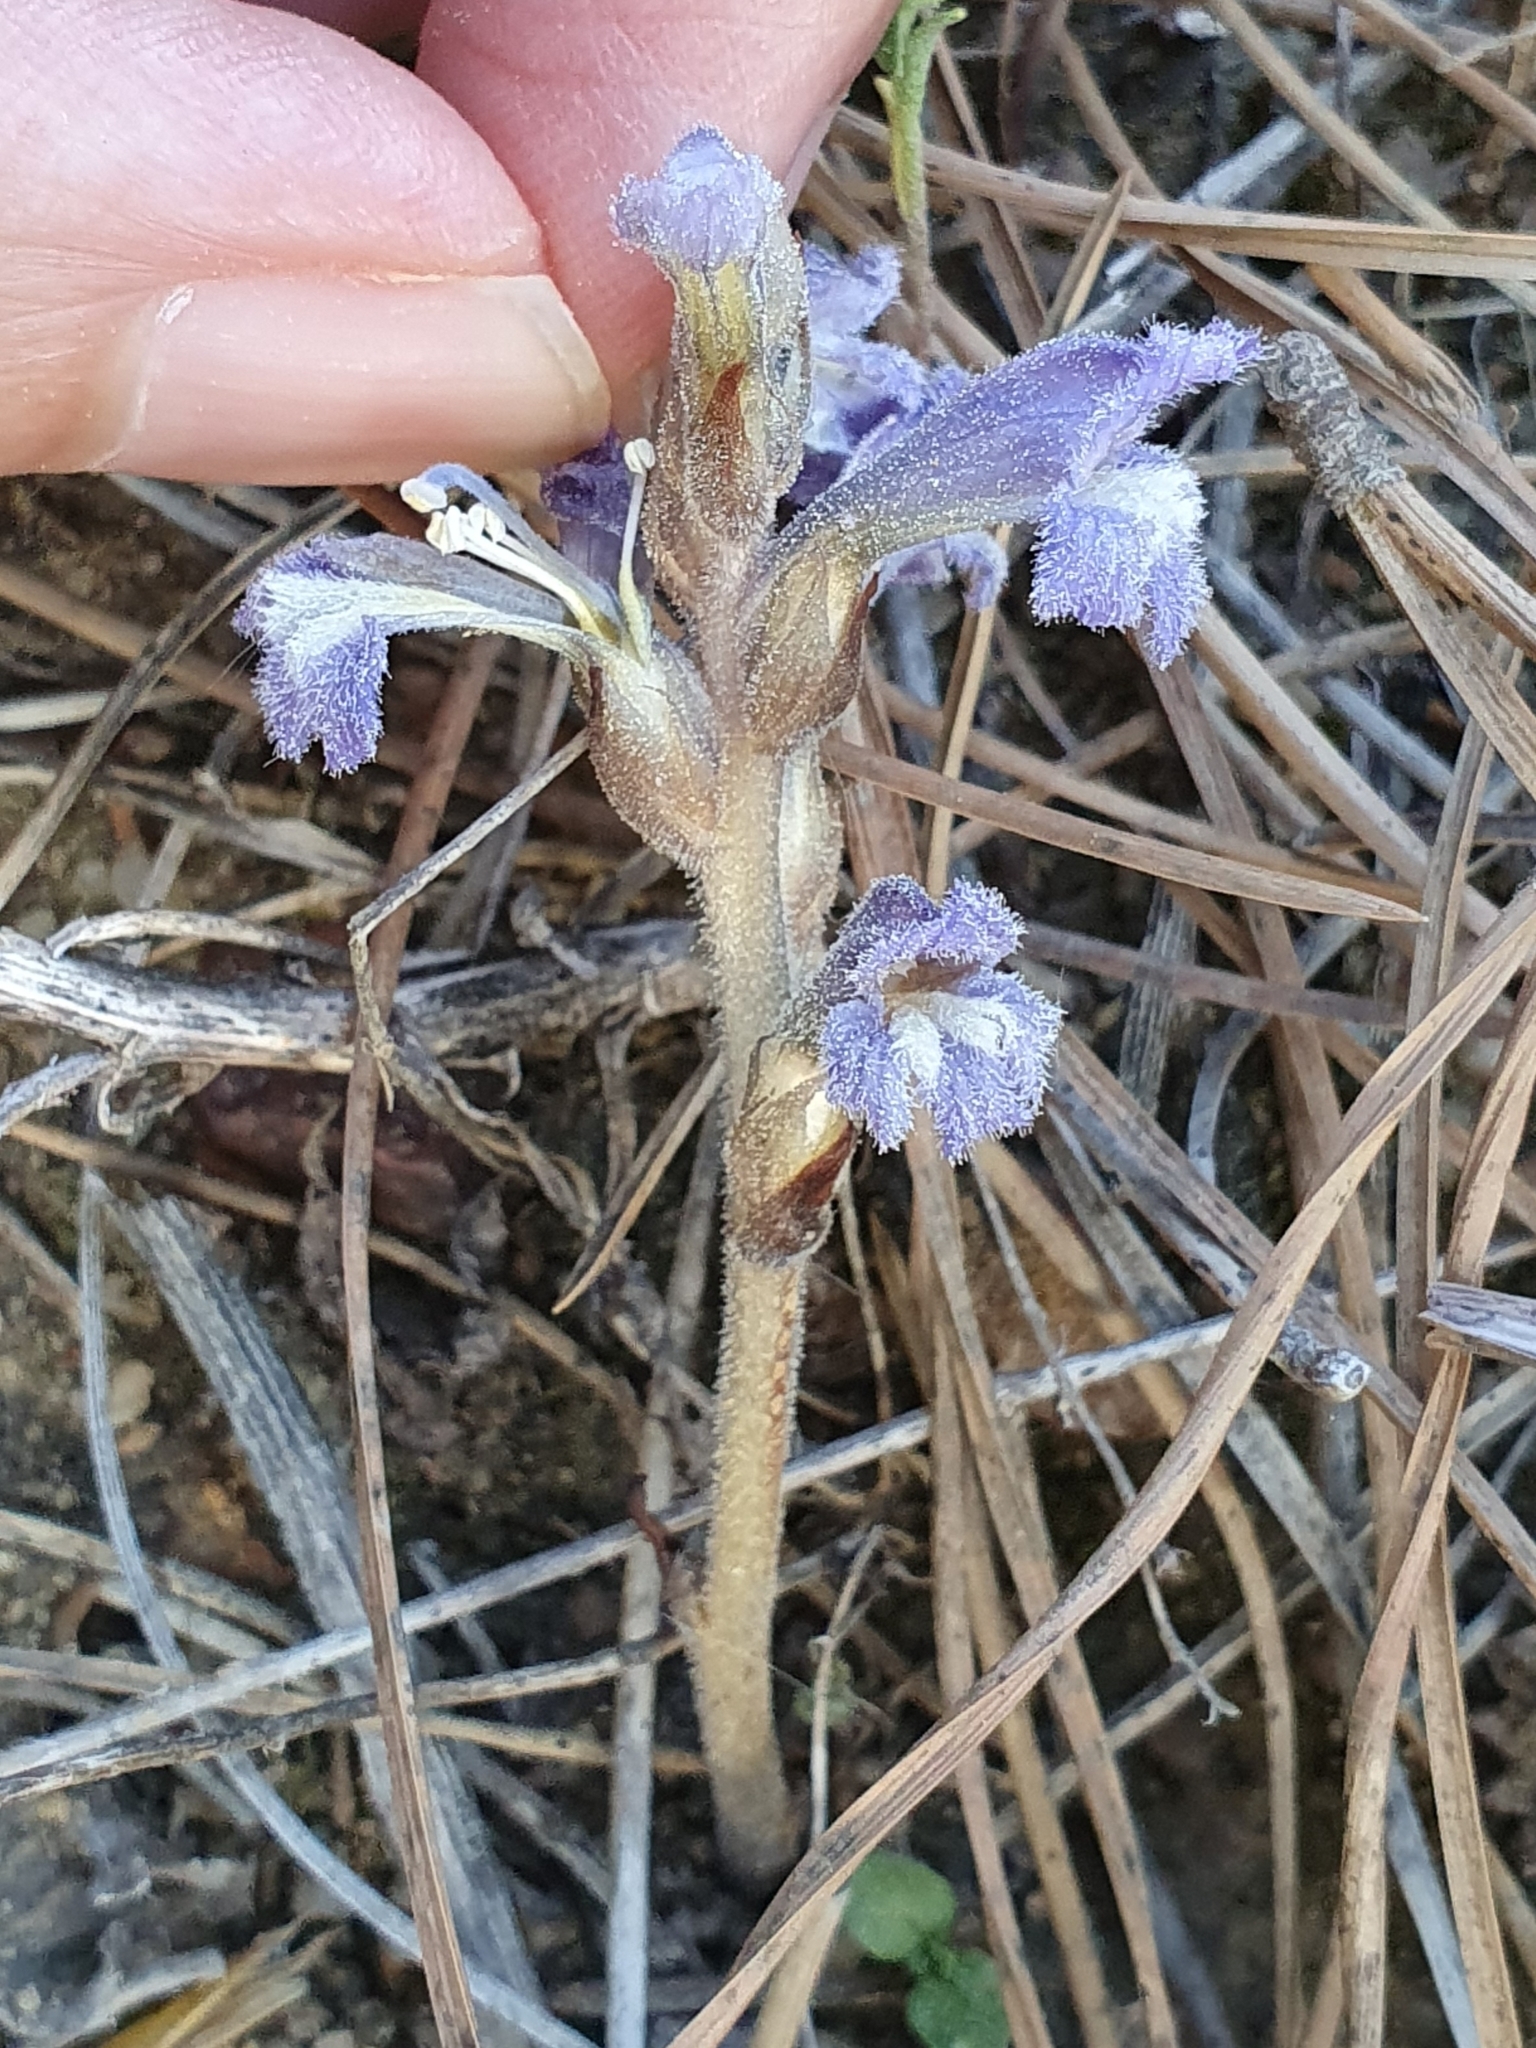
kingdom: Plantae
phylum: Tracheophyta
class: Magnoliopsida
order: Lamiales
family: Orobanchaceae
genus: Phelipanche
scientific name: Phelipanche mutelii
